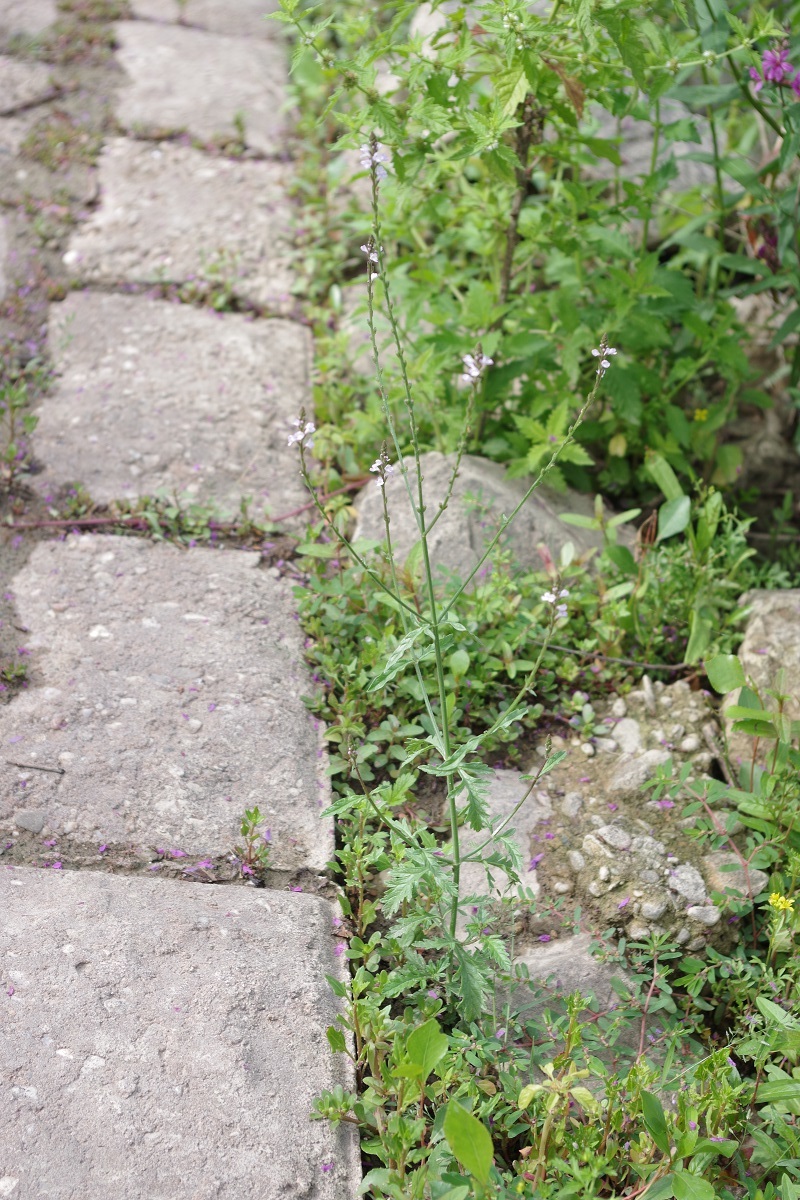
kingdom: Plantae
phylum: Tracheophyta
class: Magnoliopsida
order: Lamiales
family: Verbenaceae
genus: Verbena
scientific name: Verbena officinalis
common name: Vervain
